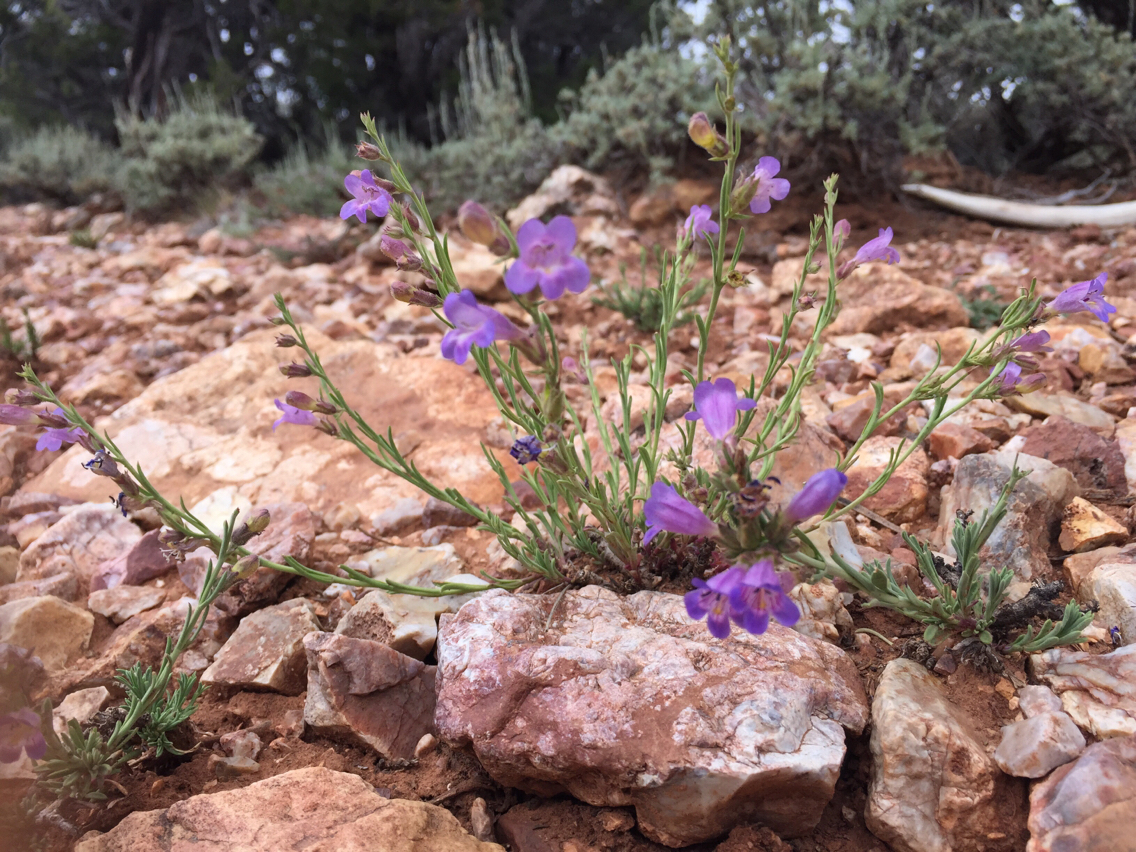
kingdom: Plantae
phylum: Tracheophyta
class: Magnoliopsida
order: Lamiales
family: Plantaginaceae
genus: Penstemon
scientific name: Penstemon linarioides
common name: Siler's penstemon
